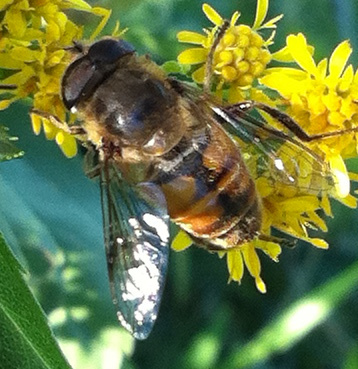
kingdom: Animalia
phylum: Arthropoda
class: Insecta
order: Diptera
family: Syrphidae
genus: Eristalis
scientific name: Eristalis tenax
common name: Drone fly
